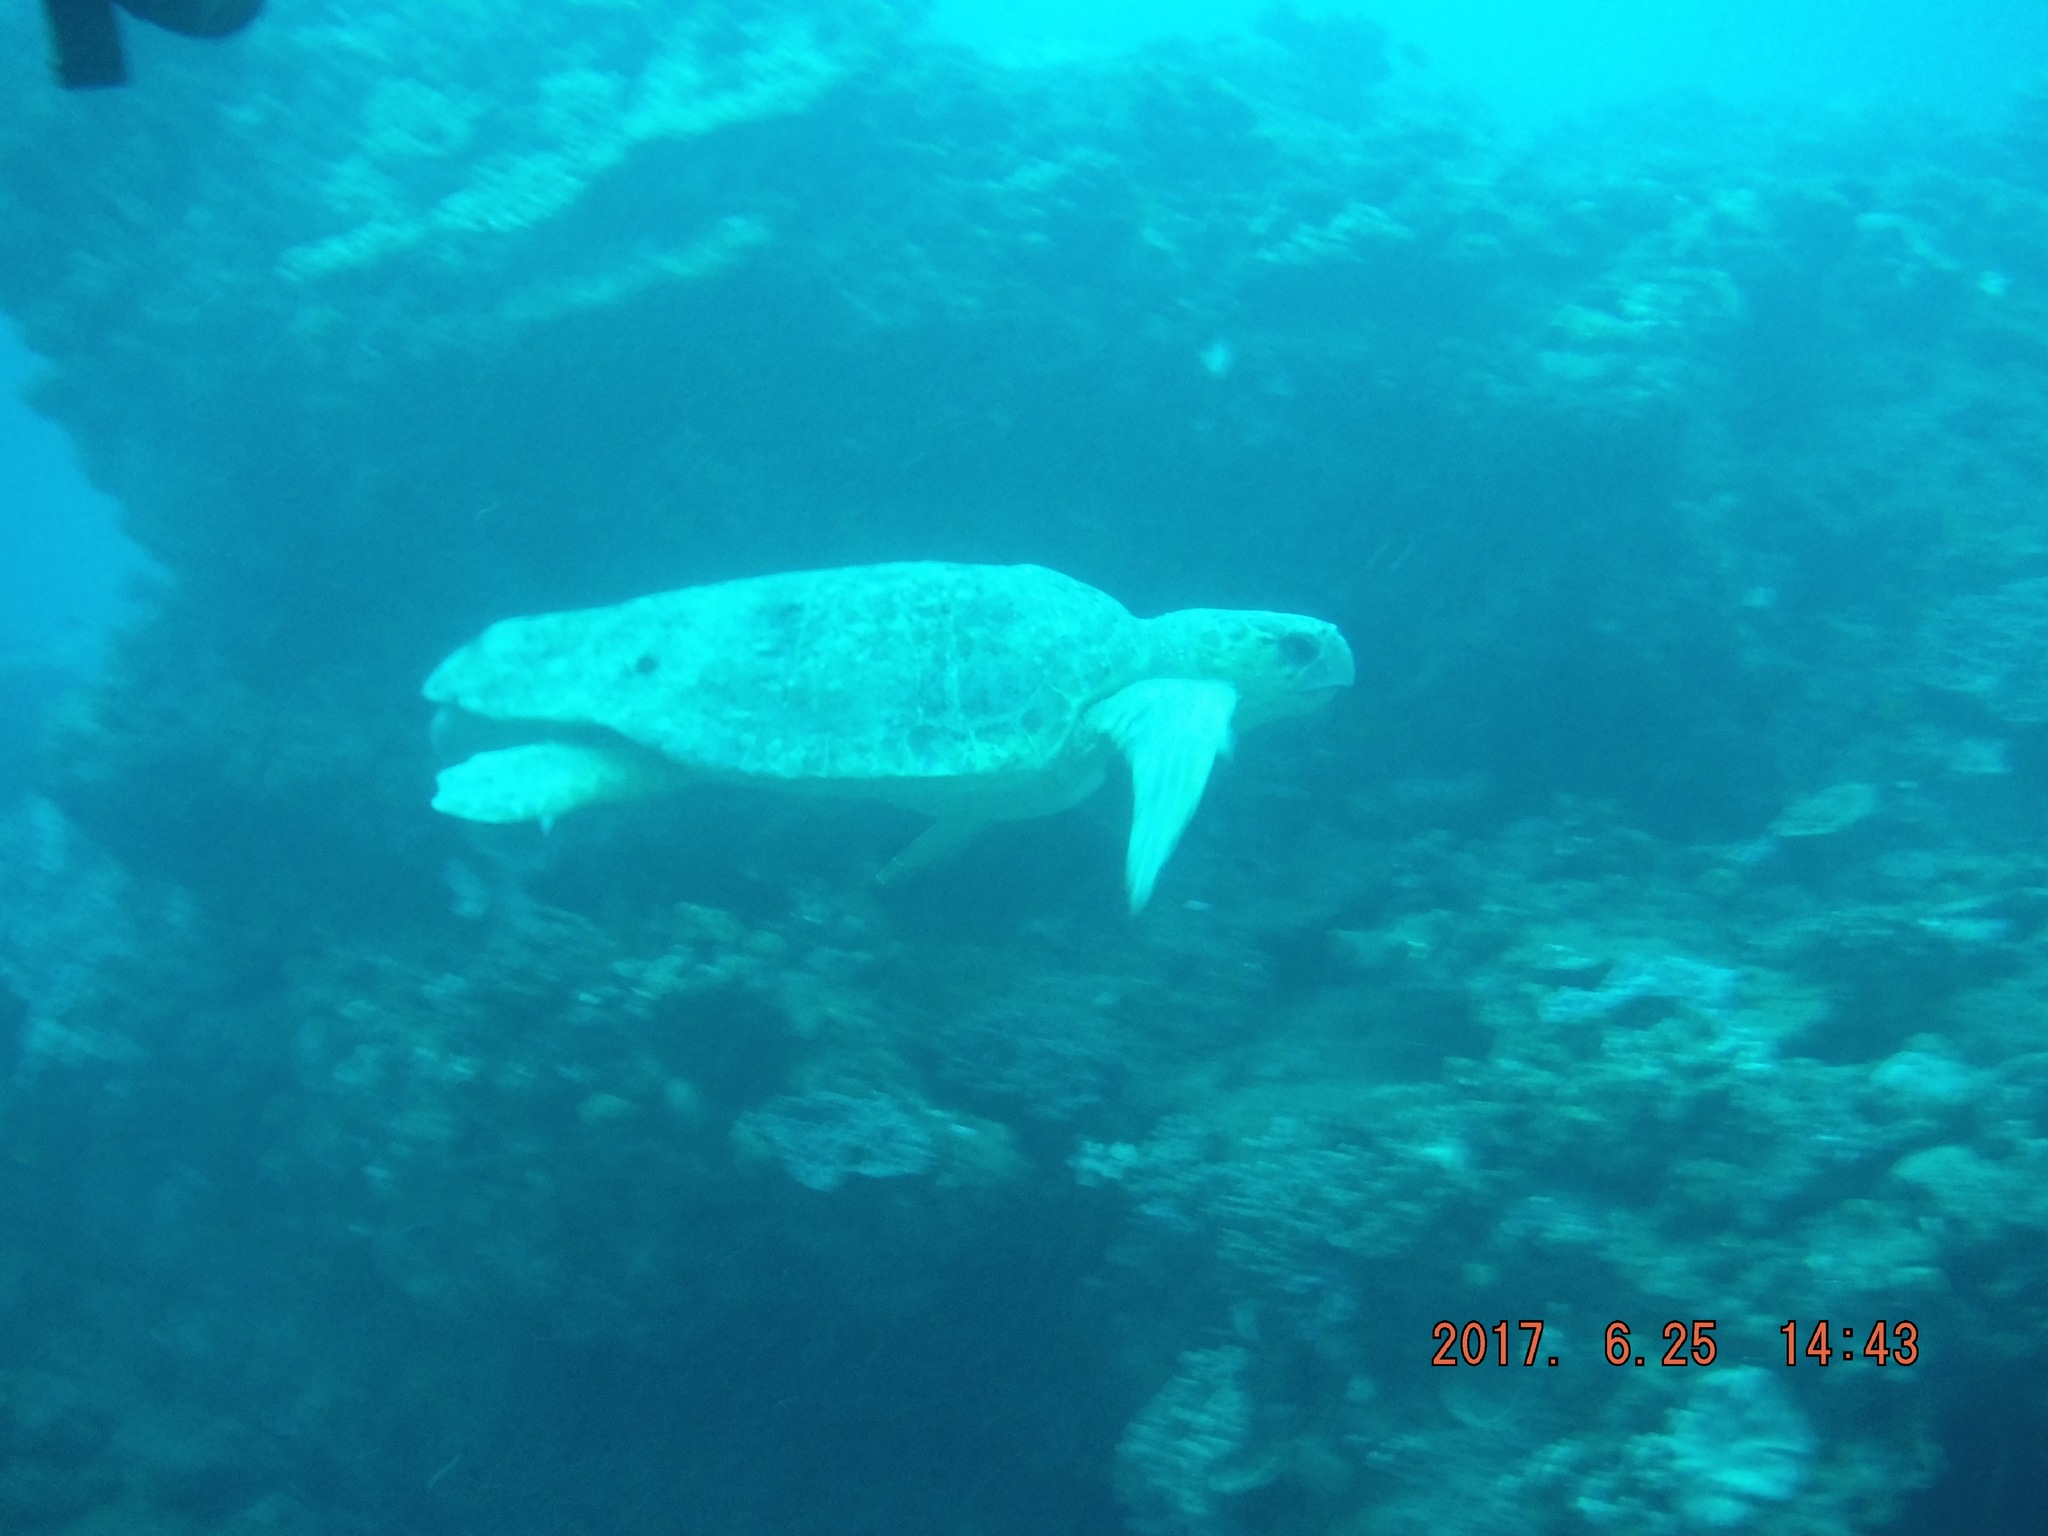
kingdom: Animalia
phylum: Chordata
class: Testudines
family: Cheloniidae
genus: Caretta
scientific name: Caretta caretta
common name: Loggerhead sea turtle
